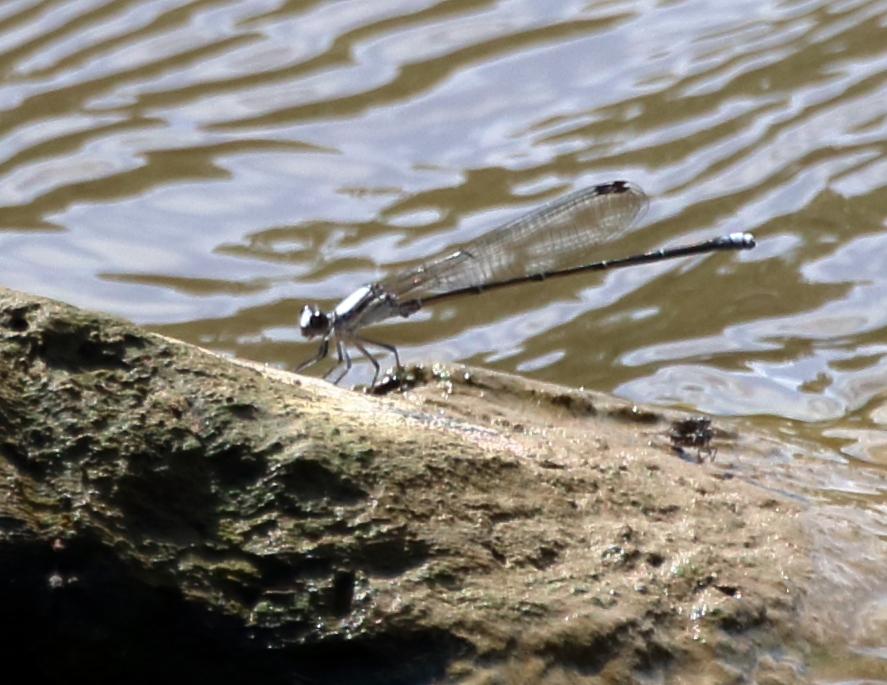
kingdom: Animalia
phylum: Arthropoda
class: Insecta
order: Odonata
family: Coenagrionidae
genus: Argia
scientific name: Argia moesta
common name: Powdered dancer
